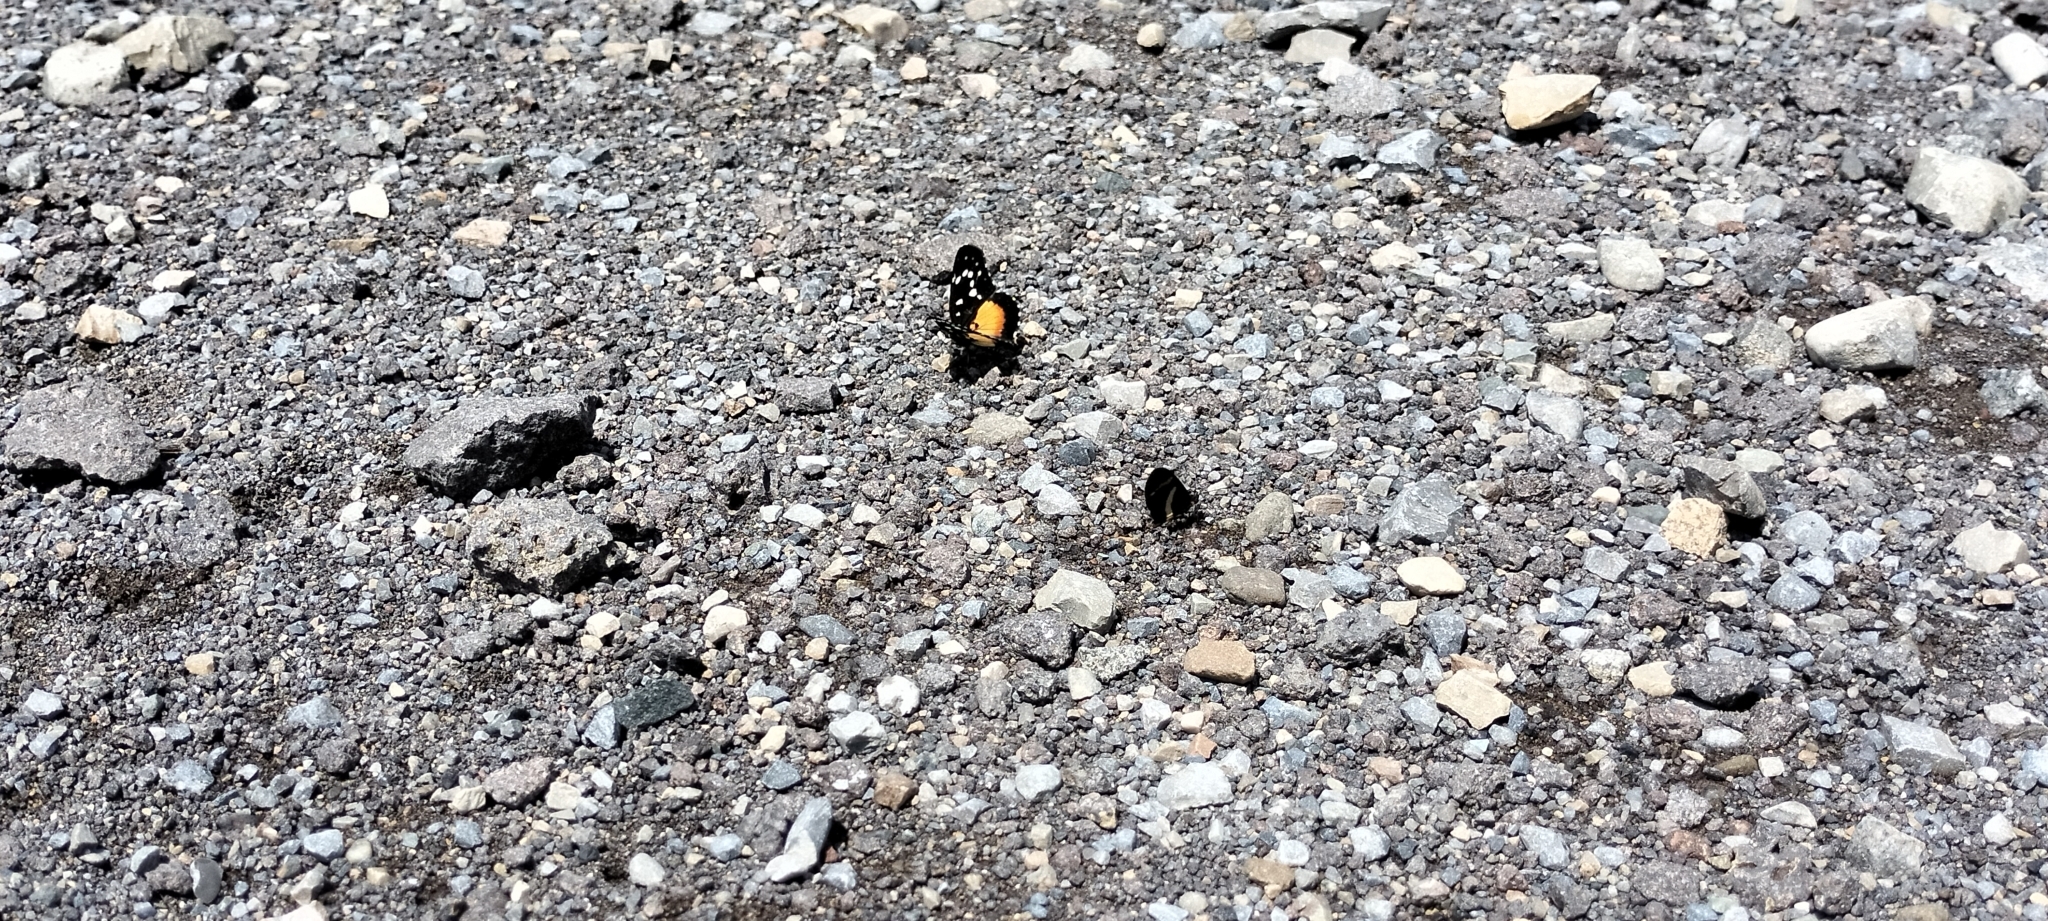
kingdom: Animalia
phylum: Arthropoda
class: Insecta
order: Lepidoptera
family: Nymphalidae
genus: Chlosyne
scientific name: Chlosyne rosita
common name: Rosita patch
